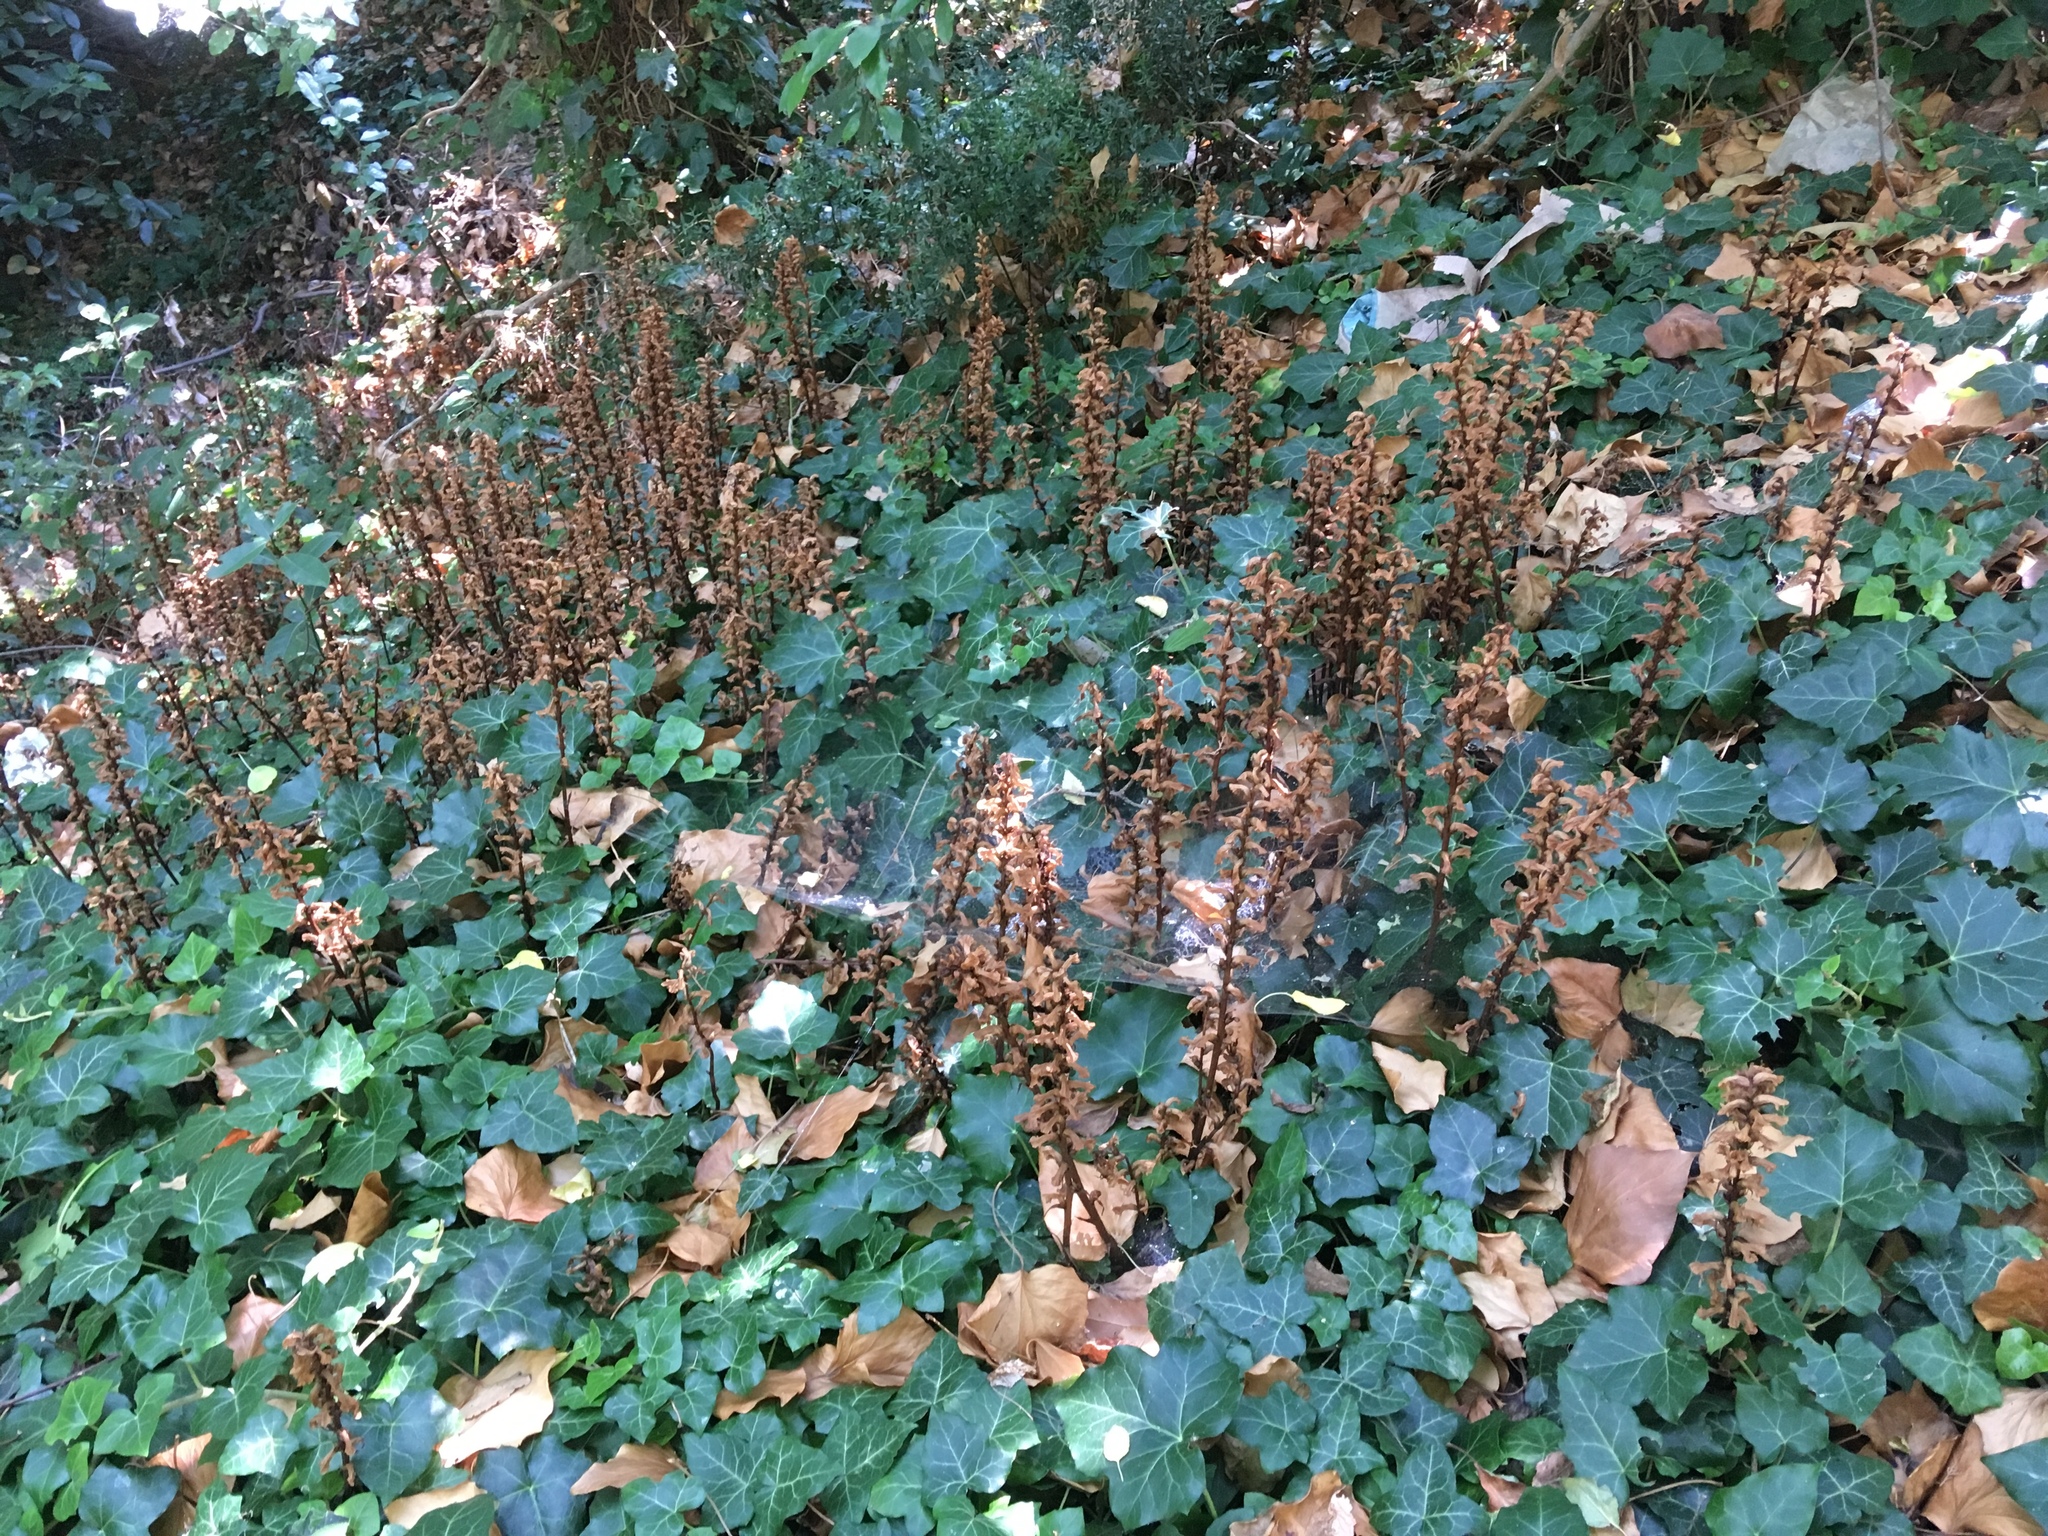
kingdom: Plantae
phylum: Tracheophyta
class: Magnoliopsida
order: Lamiales
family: Orobanchaceae
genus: Orobanche
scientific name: Orobanche hederae
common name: Ivy broomrape
